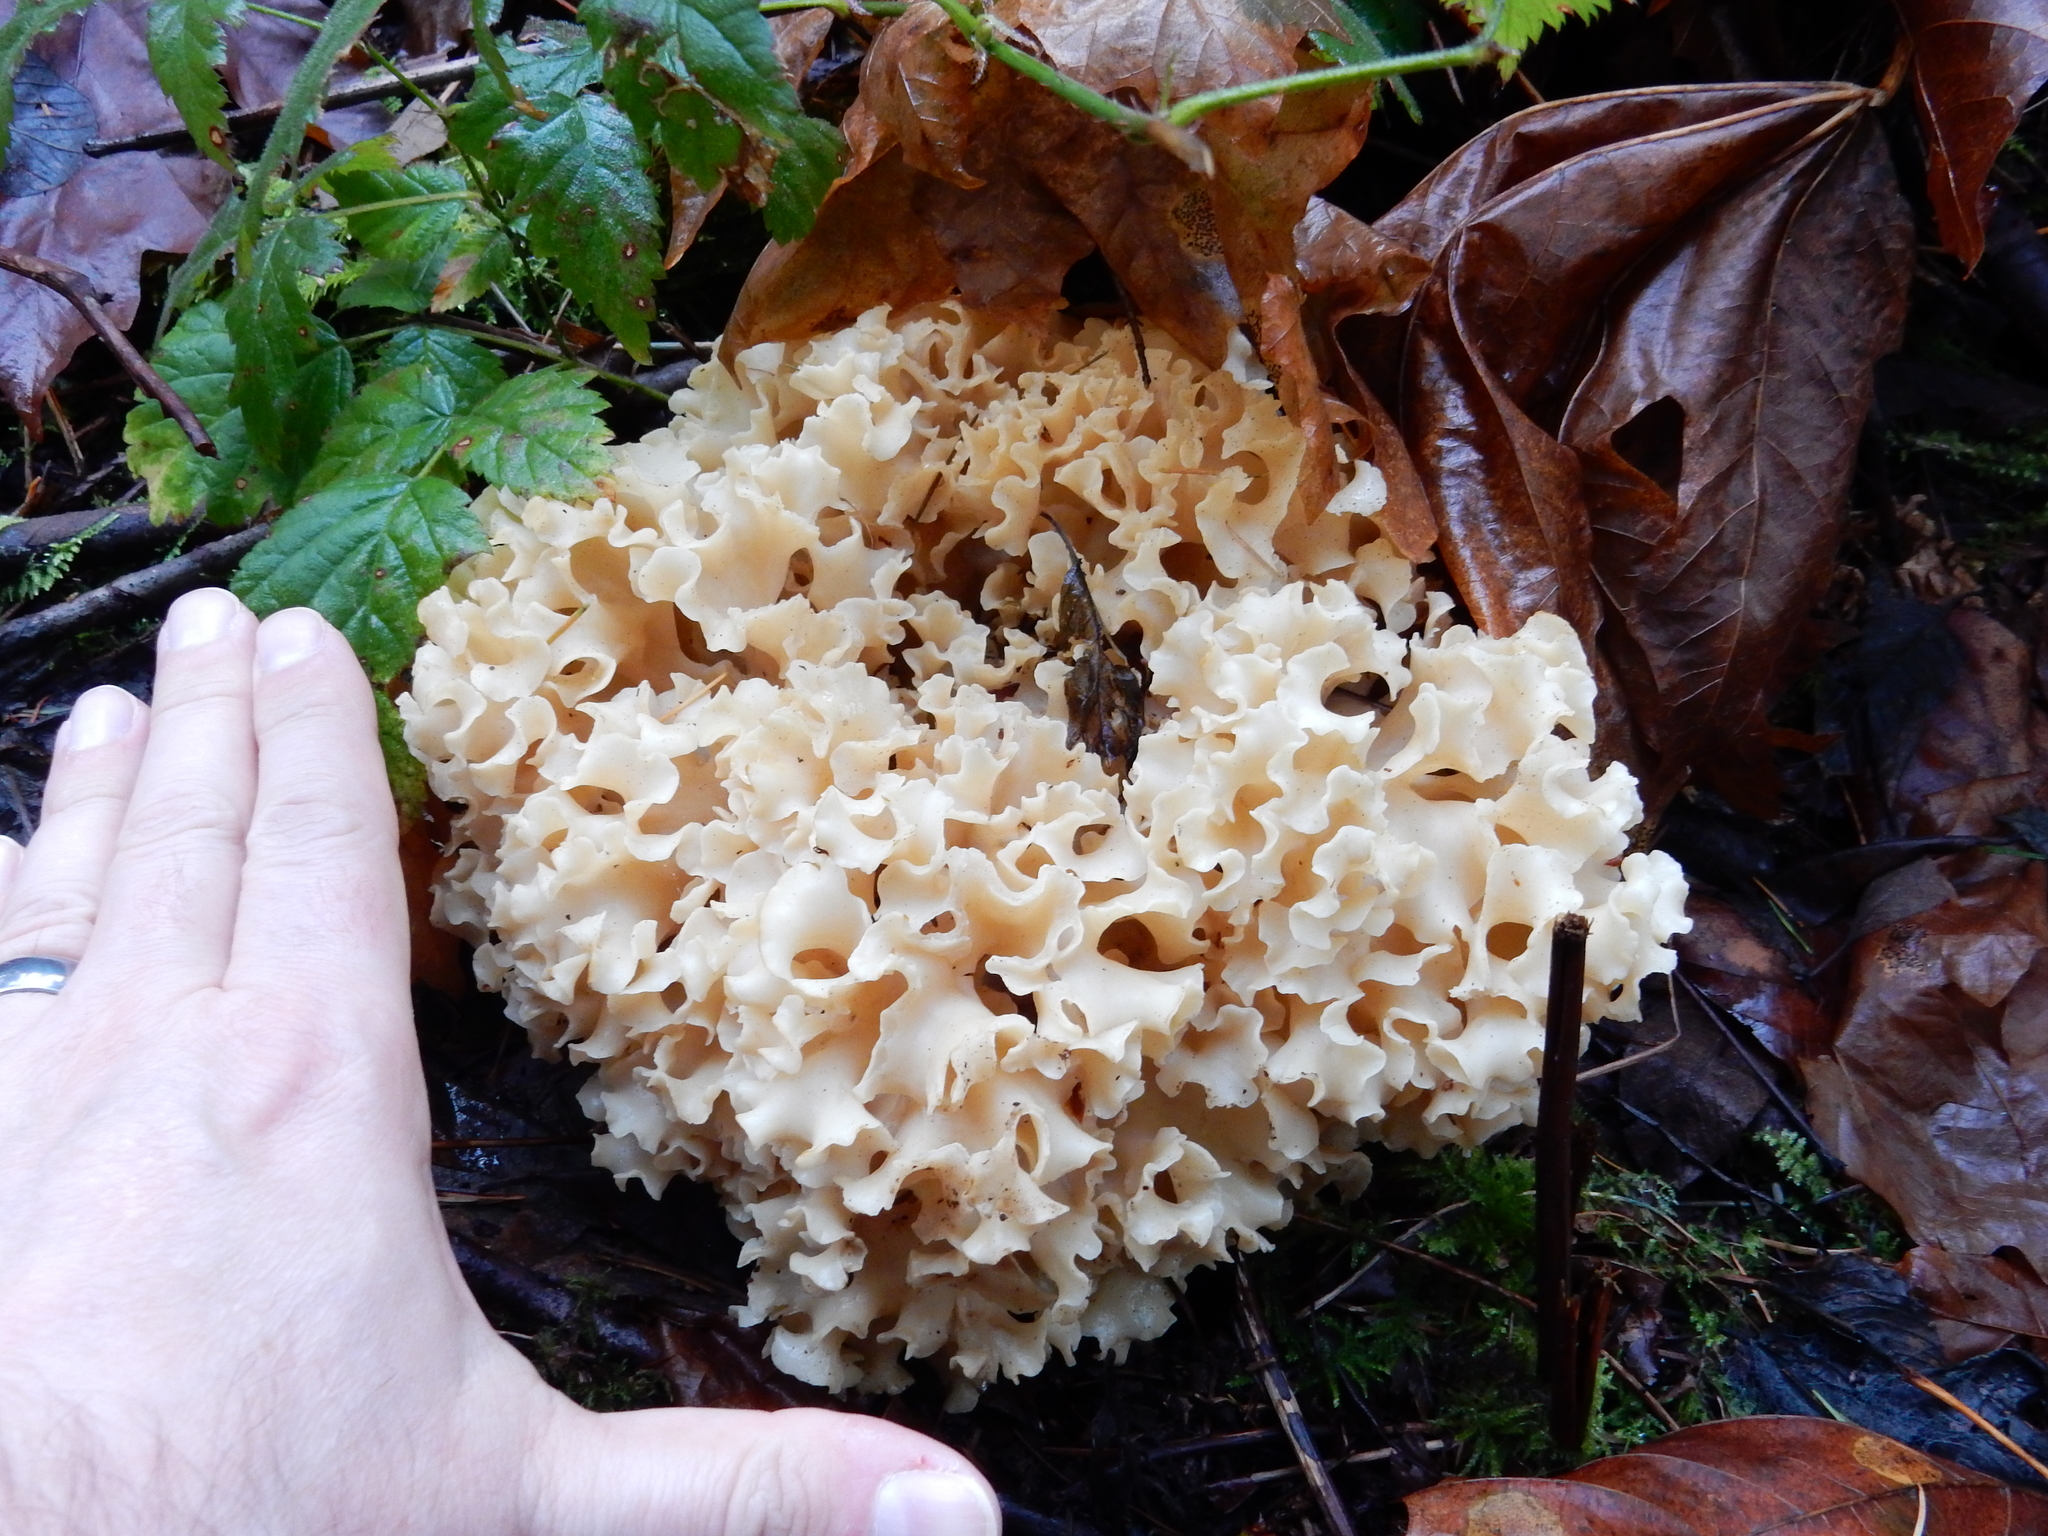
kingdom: Fungi
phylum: Basidiomycota
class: Agaricomycetes
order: Polyporales
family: Sparassidaceae
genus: Sparassis
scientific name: Sparassis radicata
